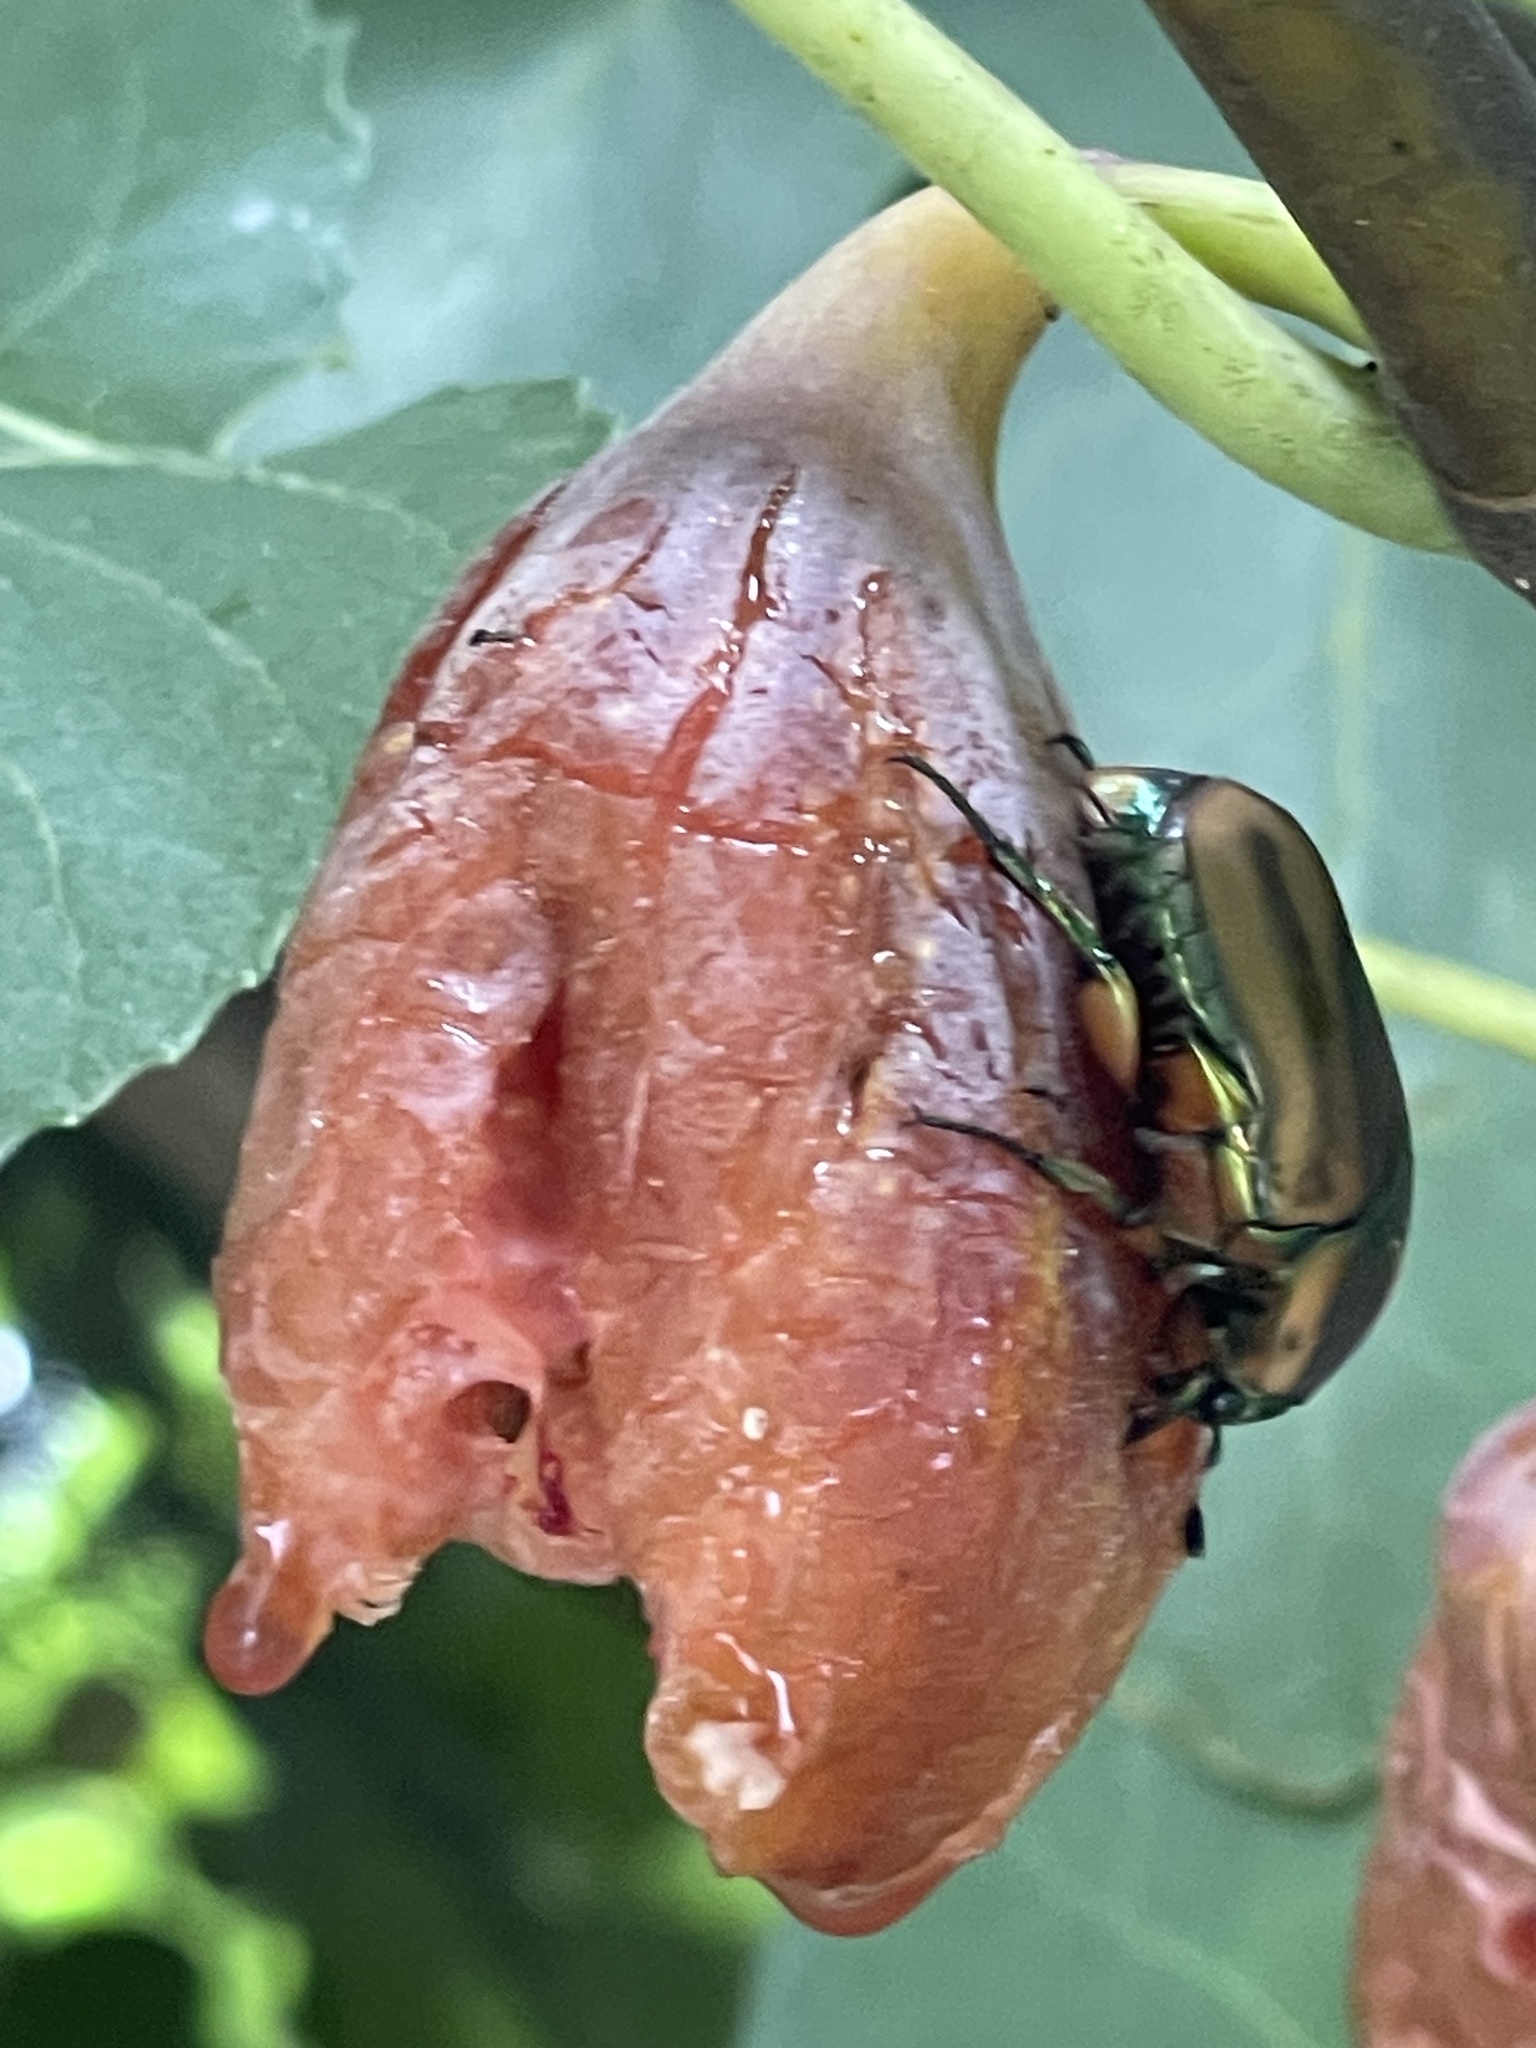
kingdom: Animalia
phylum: Arthropoda
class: Insecta
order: Coleoptera
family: Scarabaeidae
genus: Cotinis
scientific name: Cotinis nitida
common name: Common green june beetle
